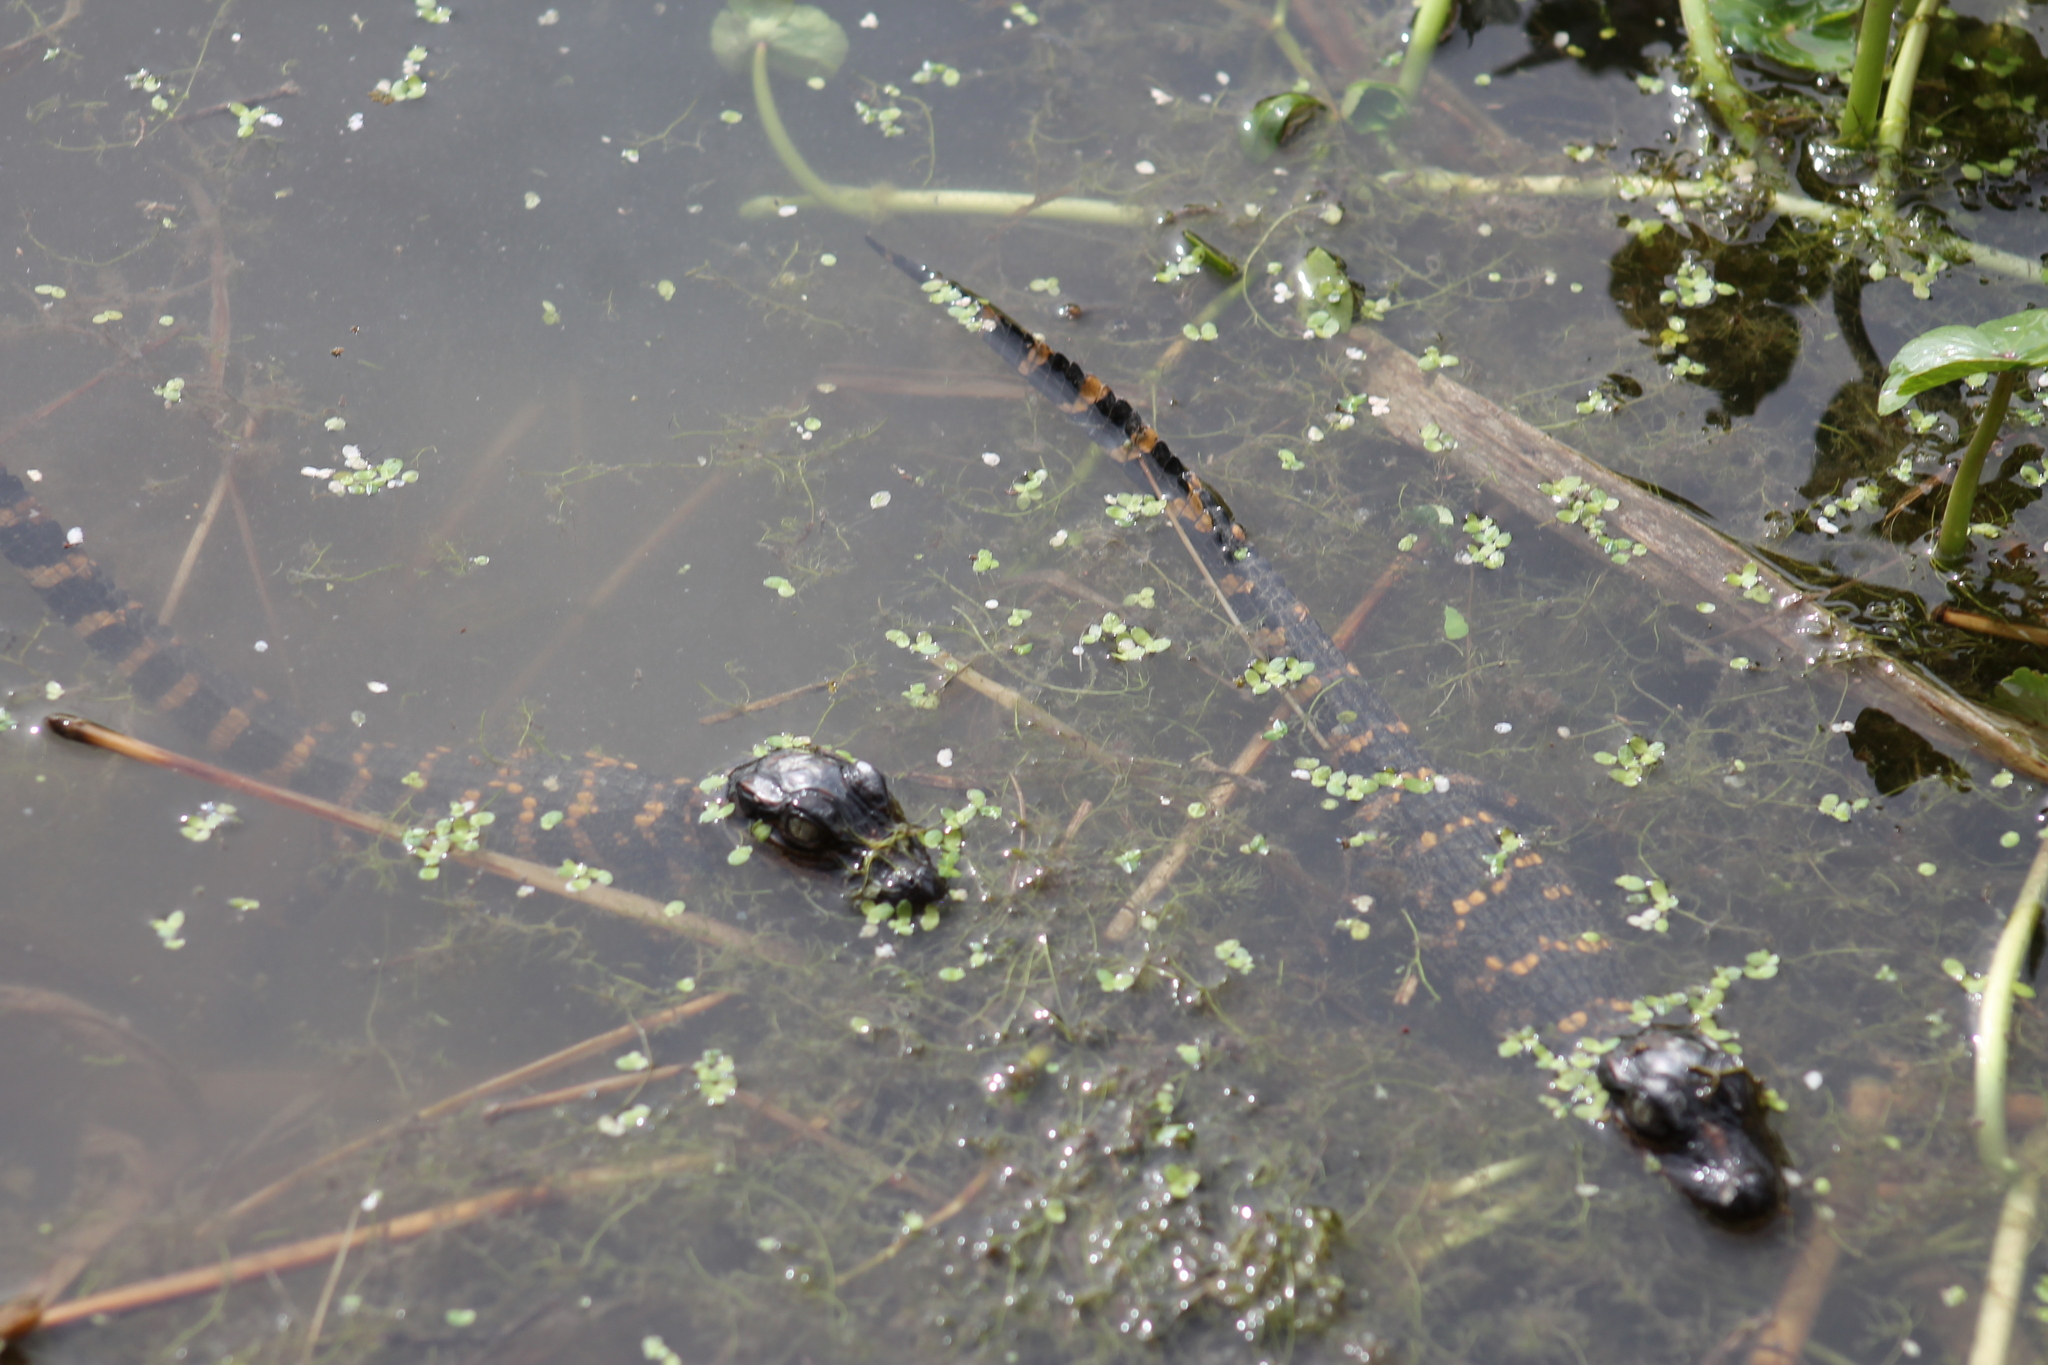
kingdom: Animalia
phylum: Chordata
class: Crocodylia
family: Alligatoridae
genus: Alligator
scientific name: Alligator mississippiensis
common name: American alligator
